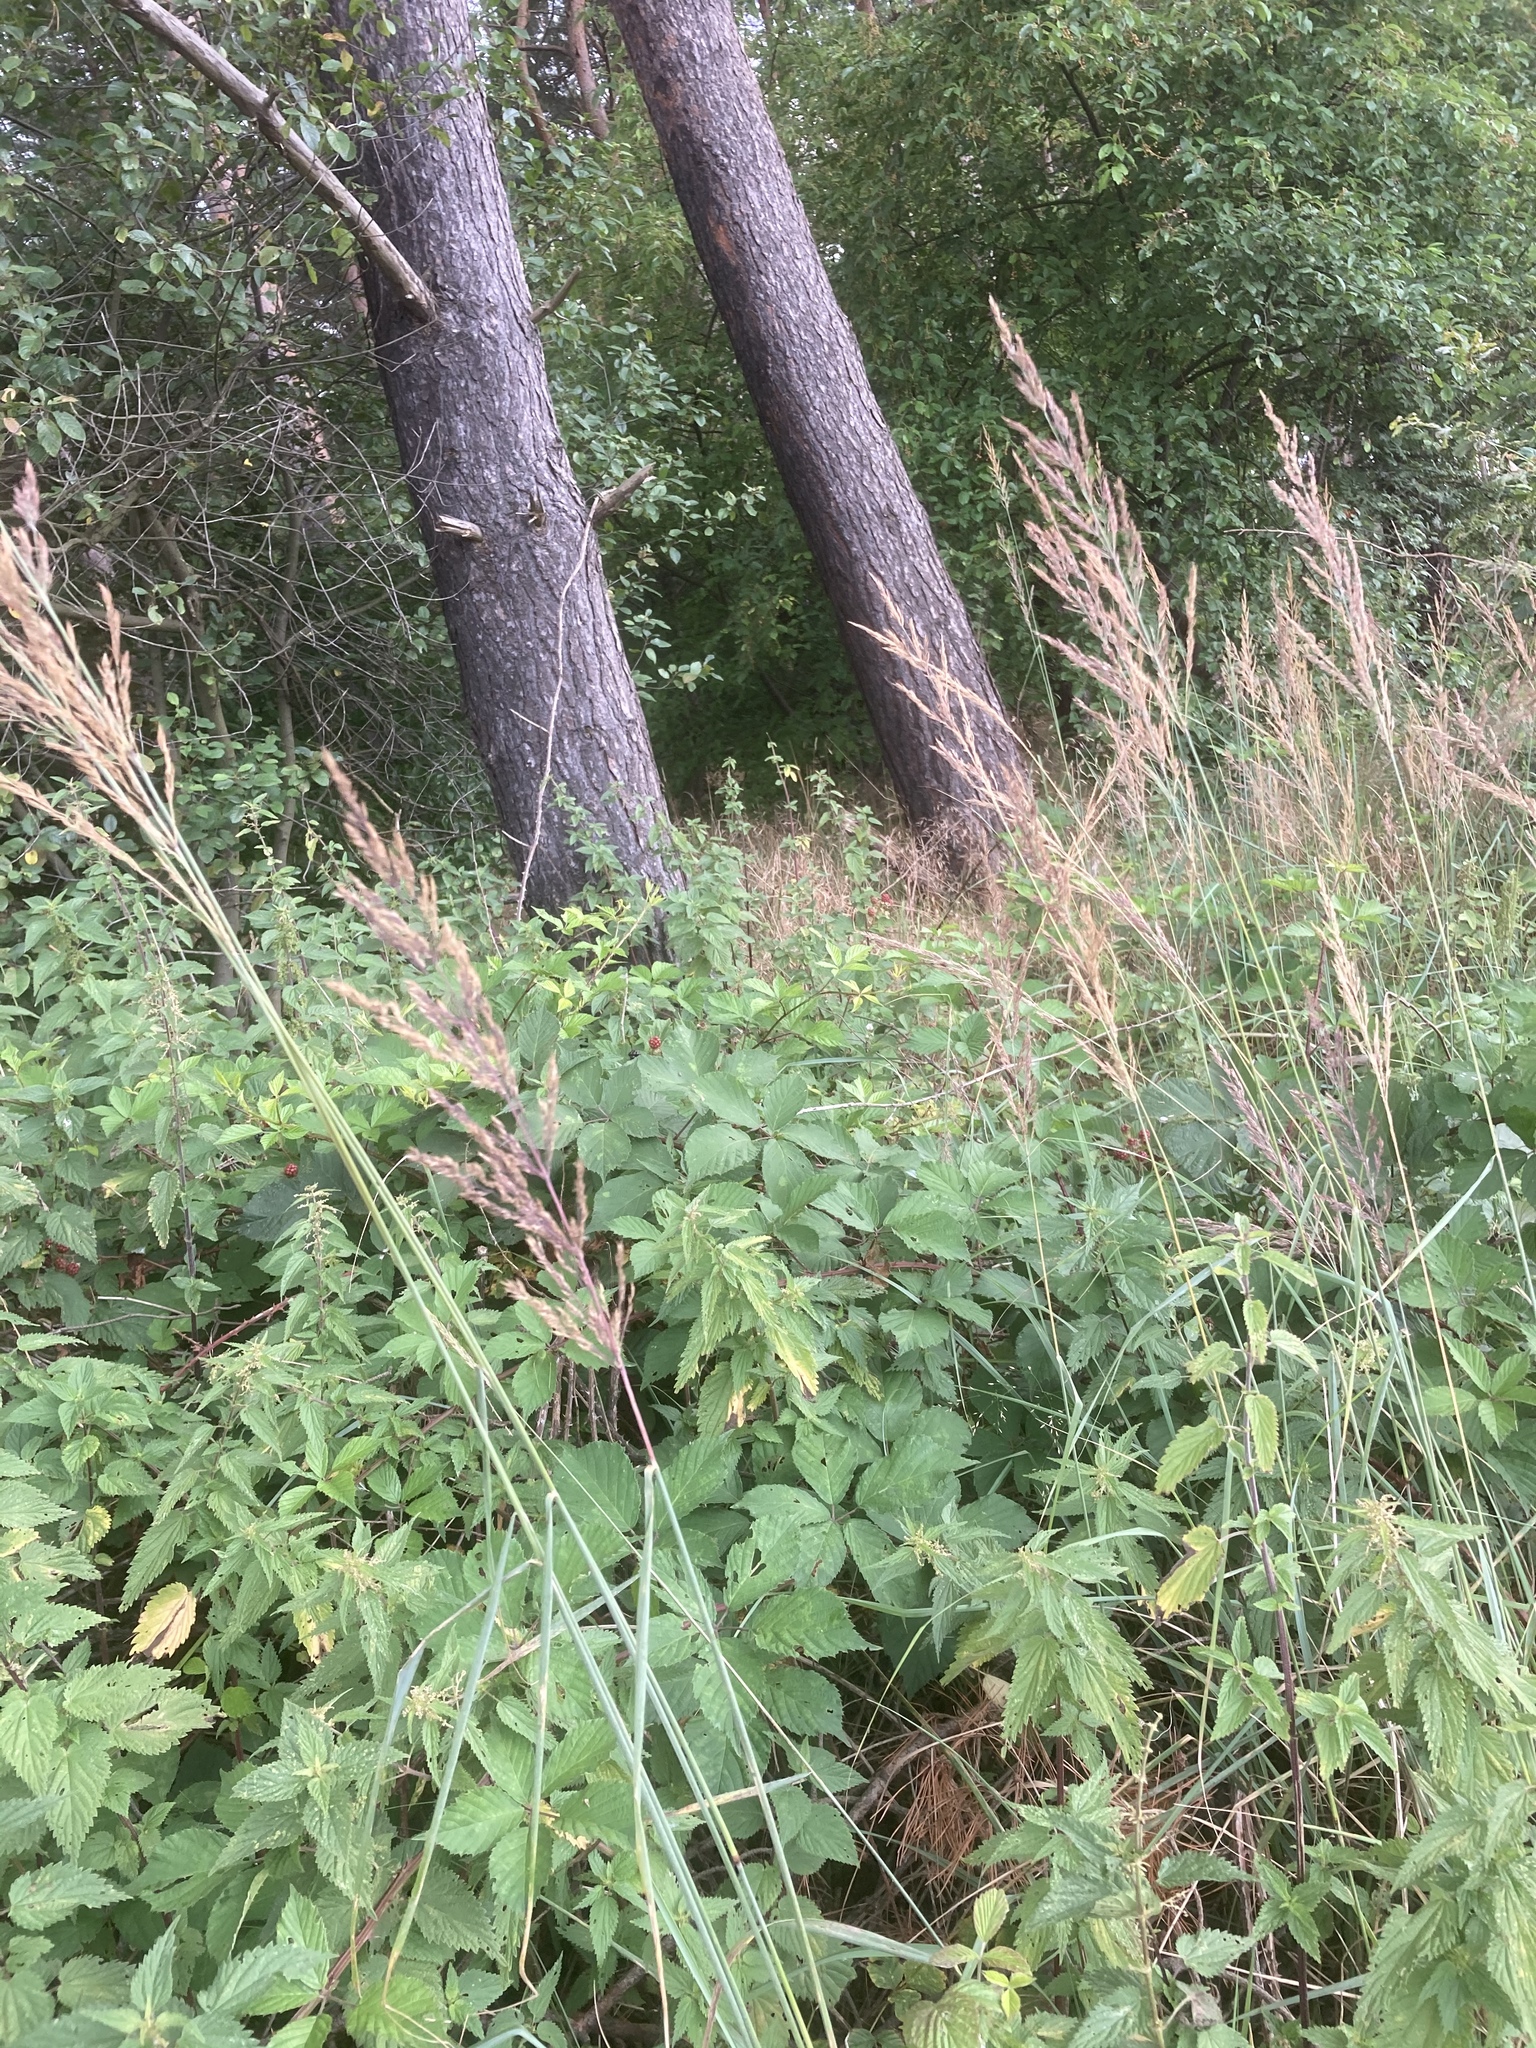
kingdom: Plantae
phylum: Tracheophyta
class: Liliopsida
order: Poales
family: Poaceae
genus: Calamagrostis
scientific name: Calamagrostis epigejos
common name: Wood small-reed
